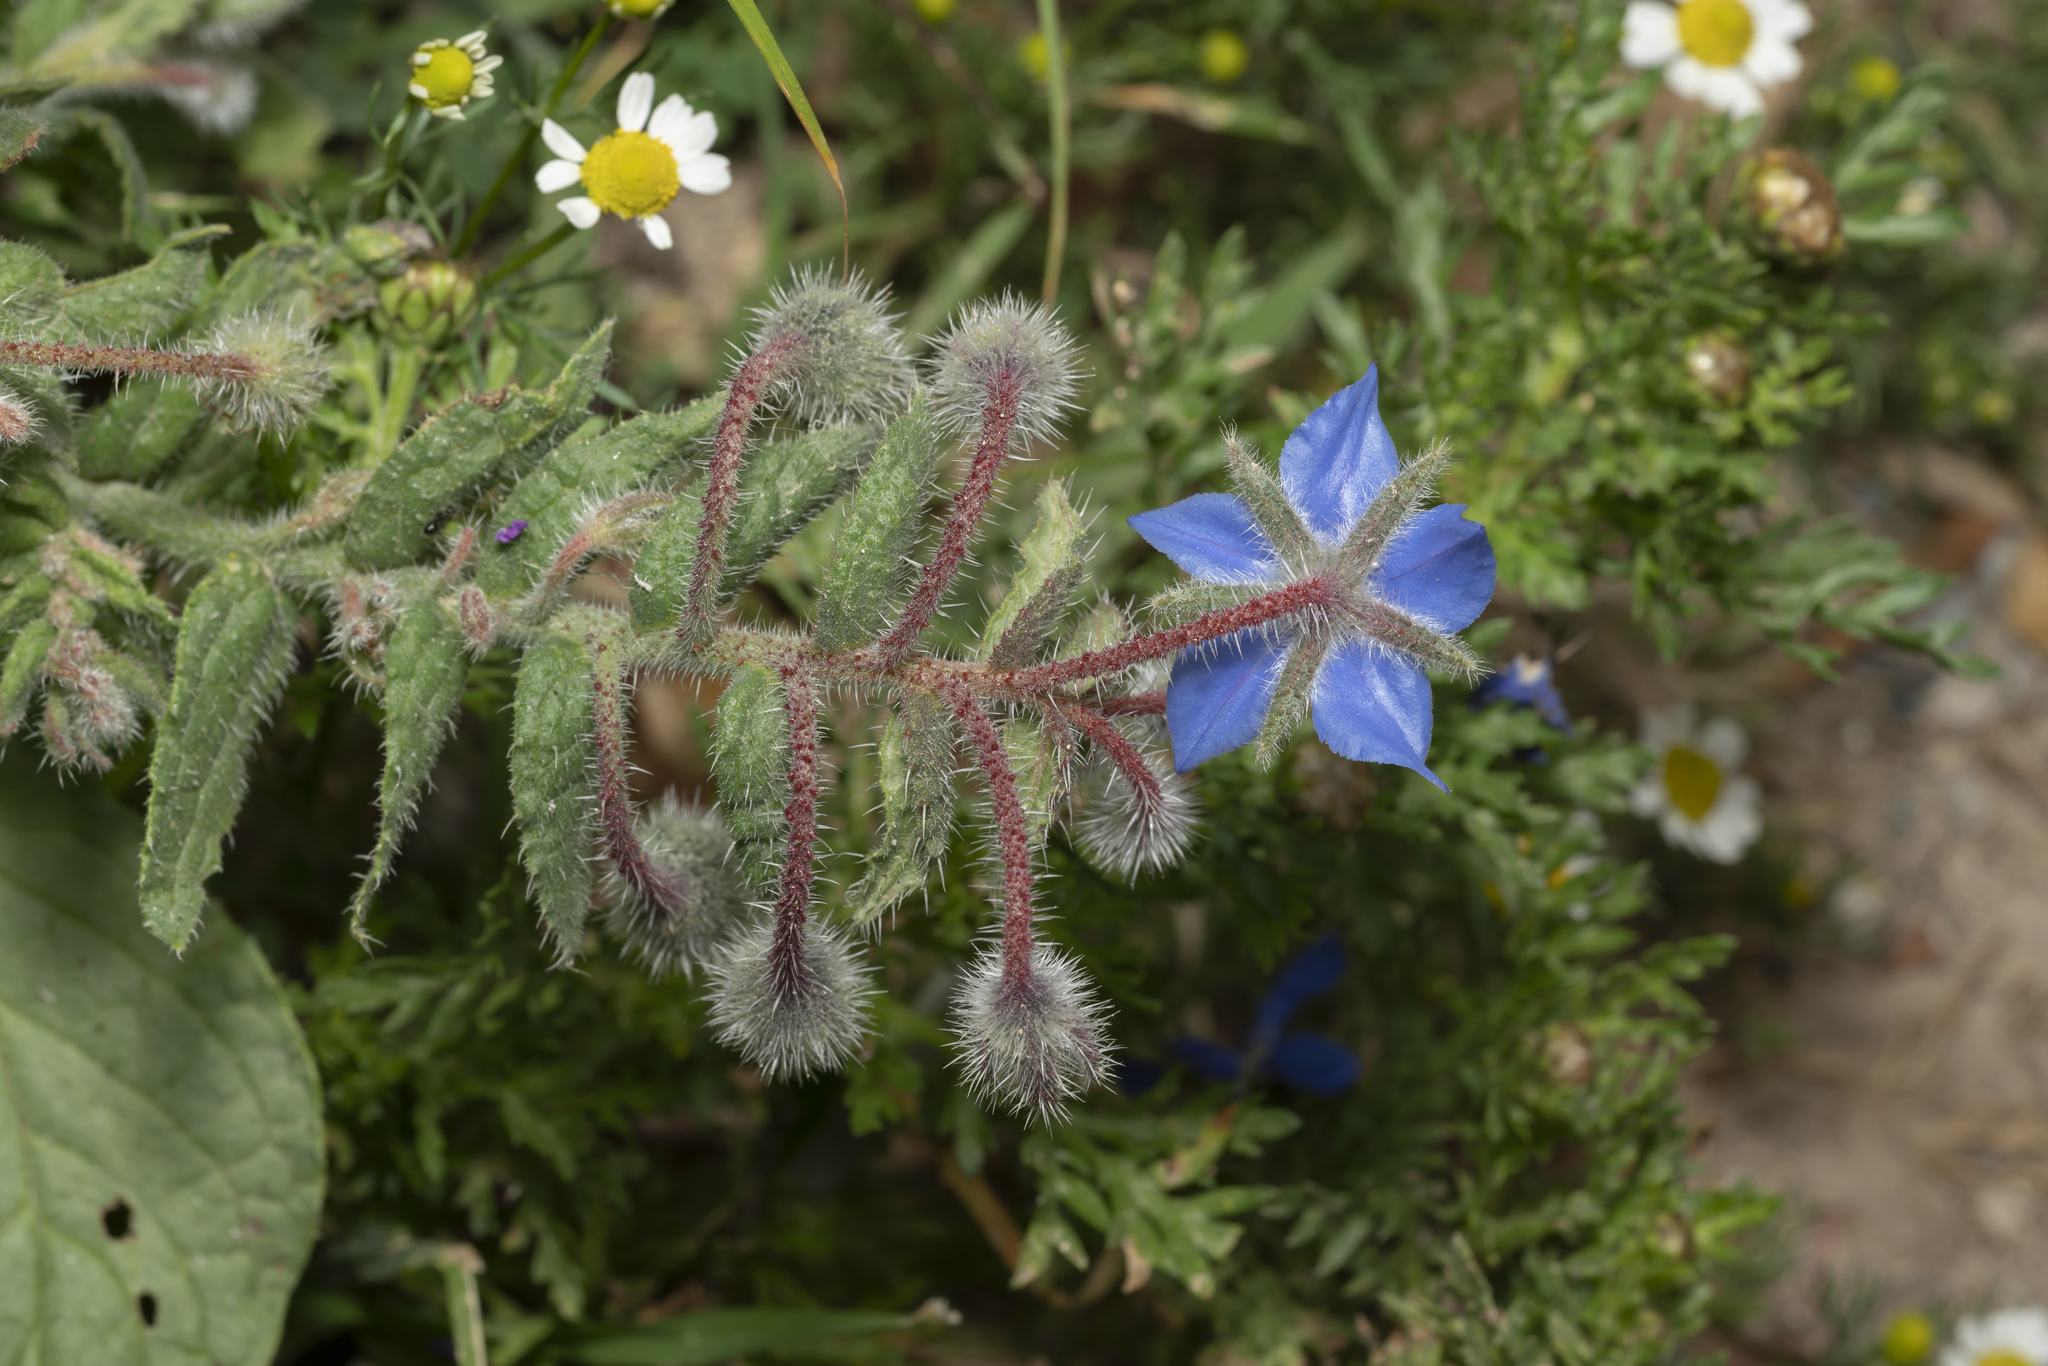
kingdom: Plantae
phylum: Tracheophyta
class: Magnoliopsida
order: Boraginales
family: Boraginaceae
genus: Borago
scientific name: Borago officinalis
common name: Borage
